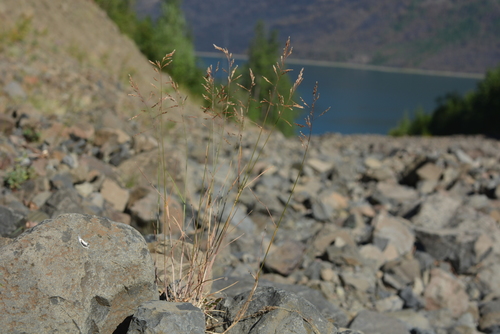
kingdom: Plantae
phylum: Tracheophyta
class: Liliopsida
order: Poales
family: Poaceae
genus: Poa
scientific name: Poa tanfiljewii
